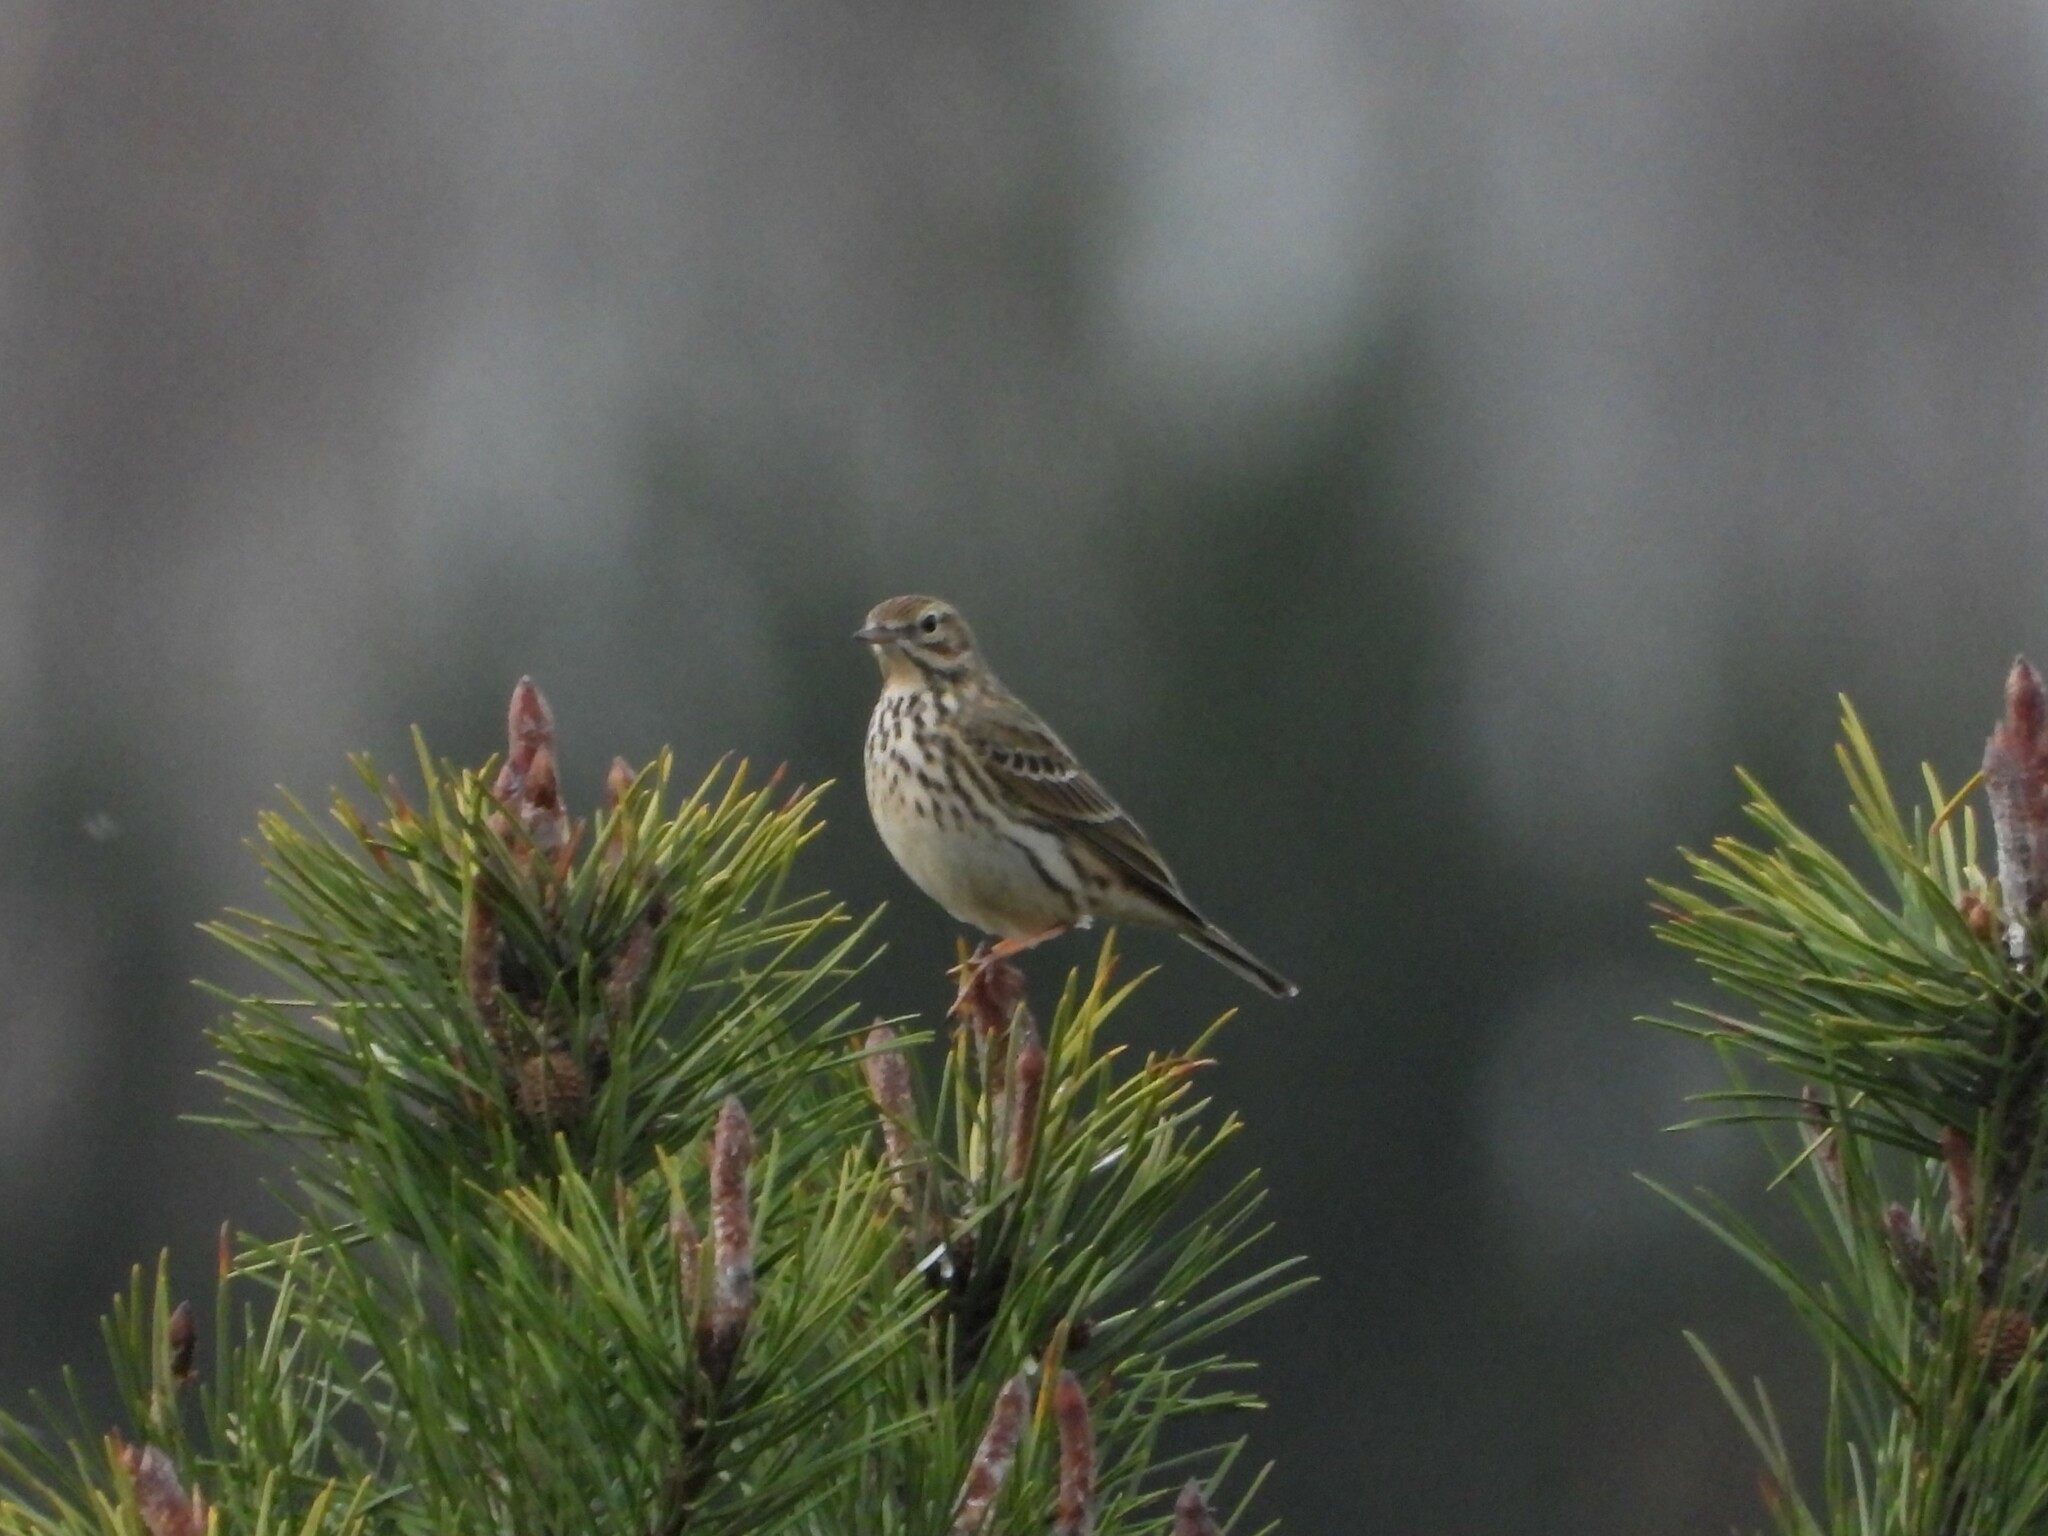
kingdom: Animalia
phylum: Chordata
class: Aves
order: Passeriformes
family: Motacillidae
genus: Anthus
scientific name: Anthus pratensis
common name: Meadow pipit
